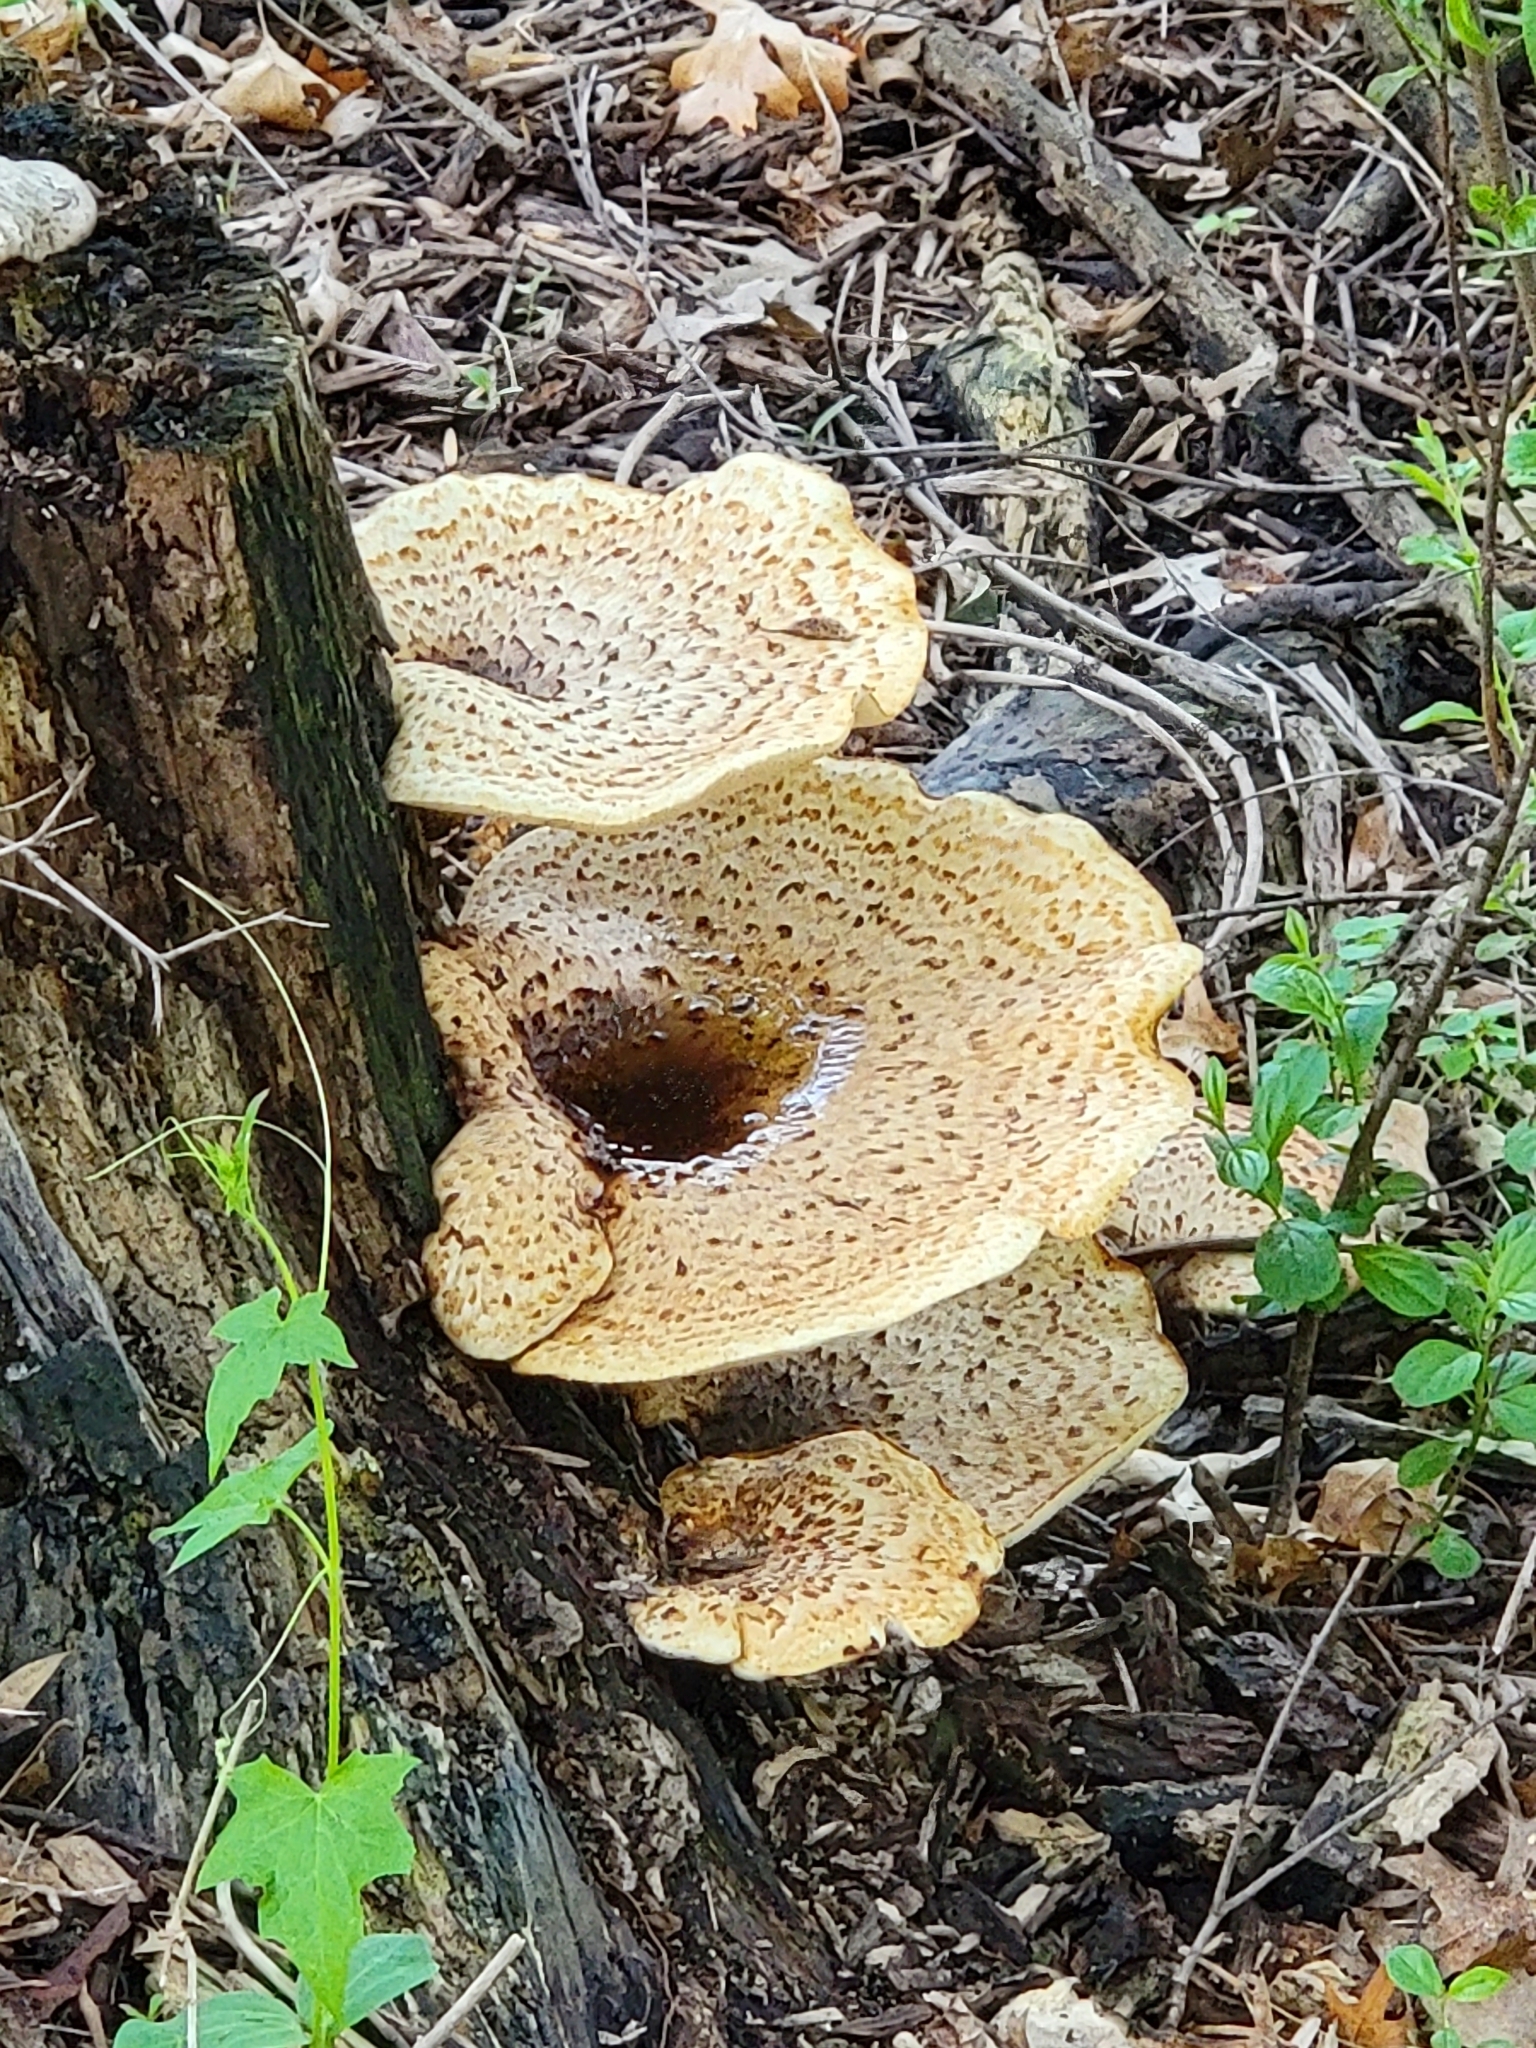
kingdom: Fungi
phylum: Basidiomycota
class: Agaricomycetes
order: Polyporales
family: Polyporaceae
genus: Cerioporus
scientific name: Cerioporus squamosus
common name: Dryad's saddle
